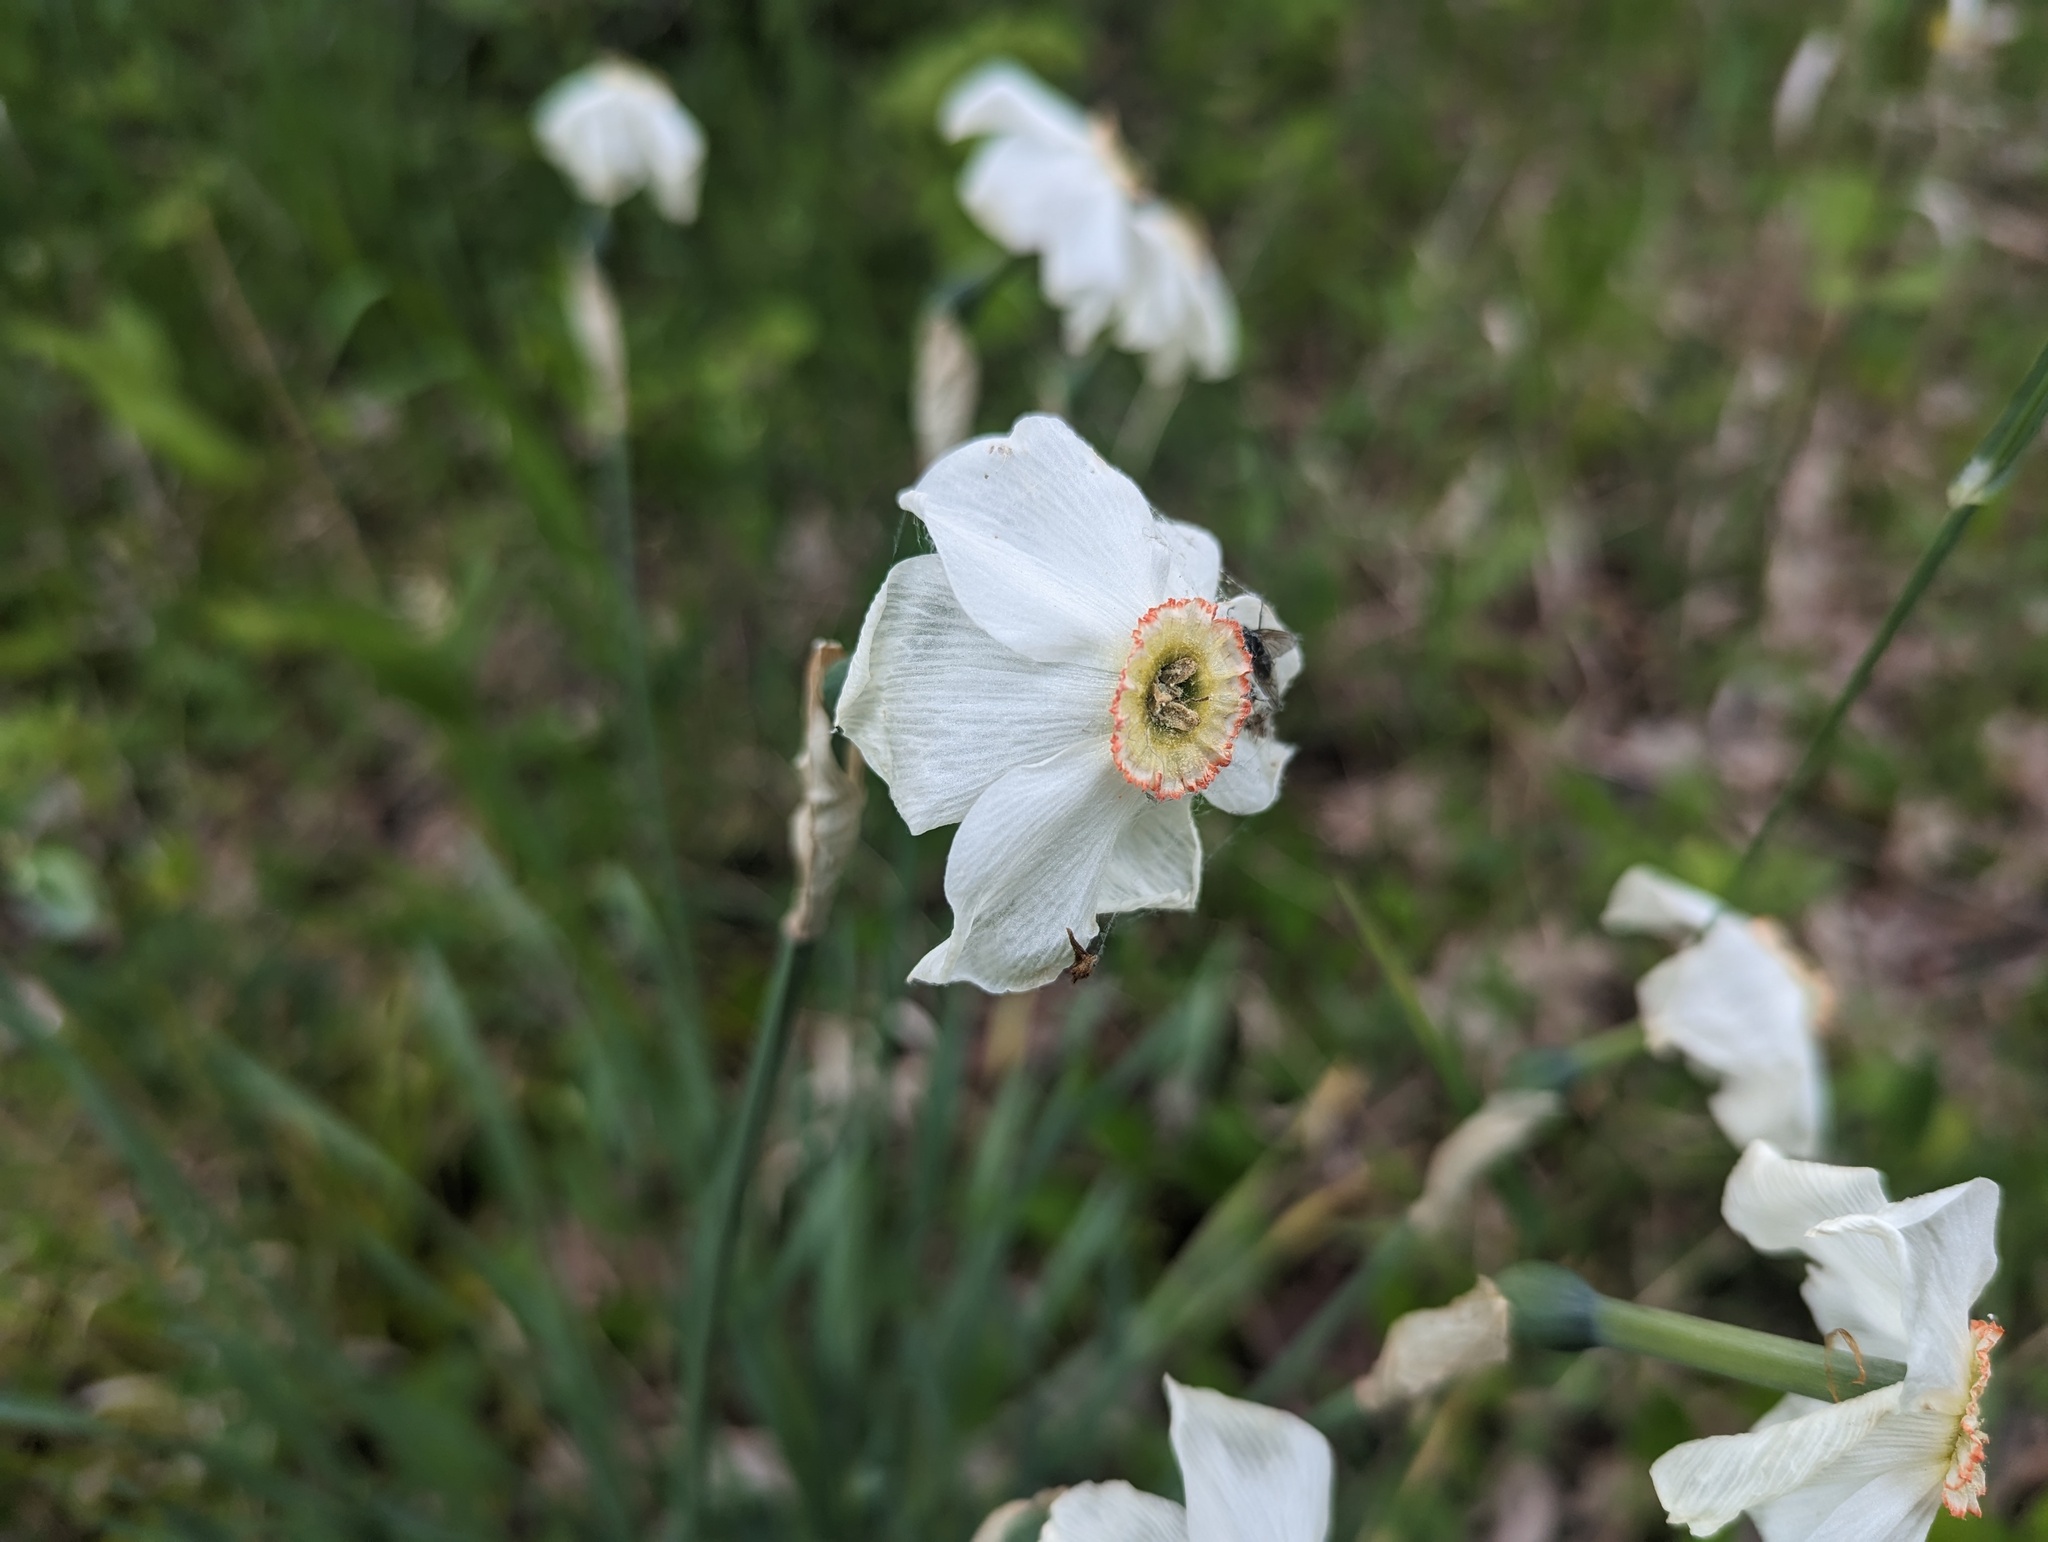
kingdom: Plantae
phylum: Tracheophyta
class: Liliopsida
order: Asparagales
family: Amaryllidaceae
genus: Narcissus
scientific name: Narcissus poeticus
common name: Pheasant's-eye daffodil
